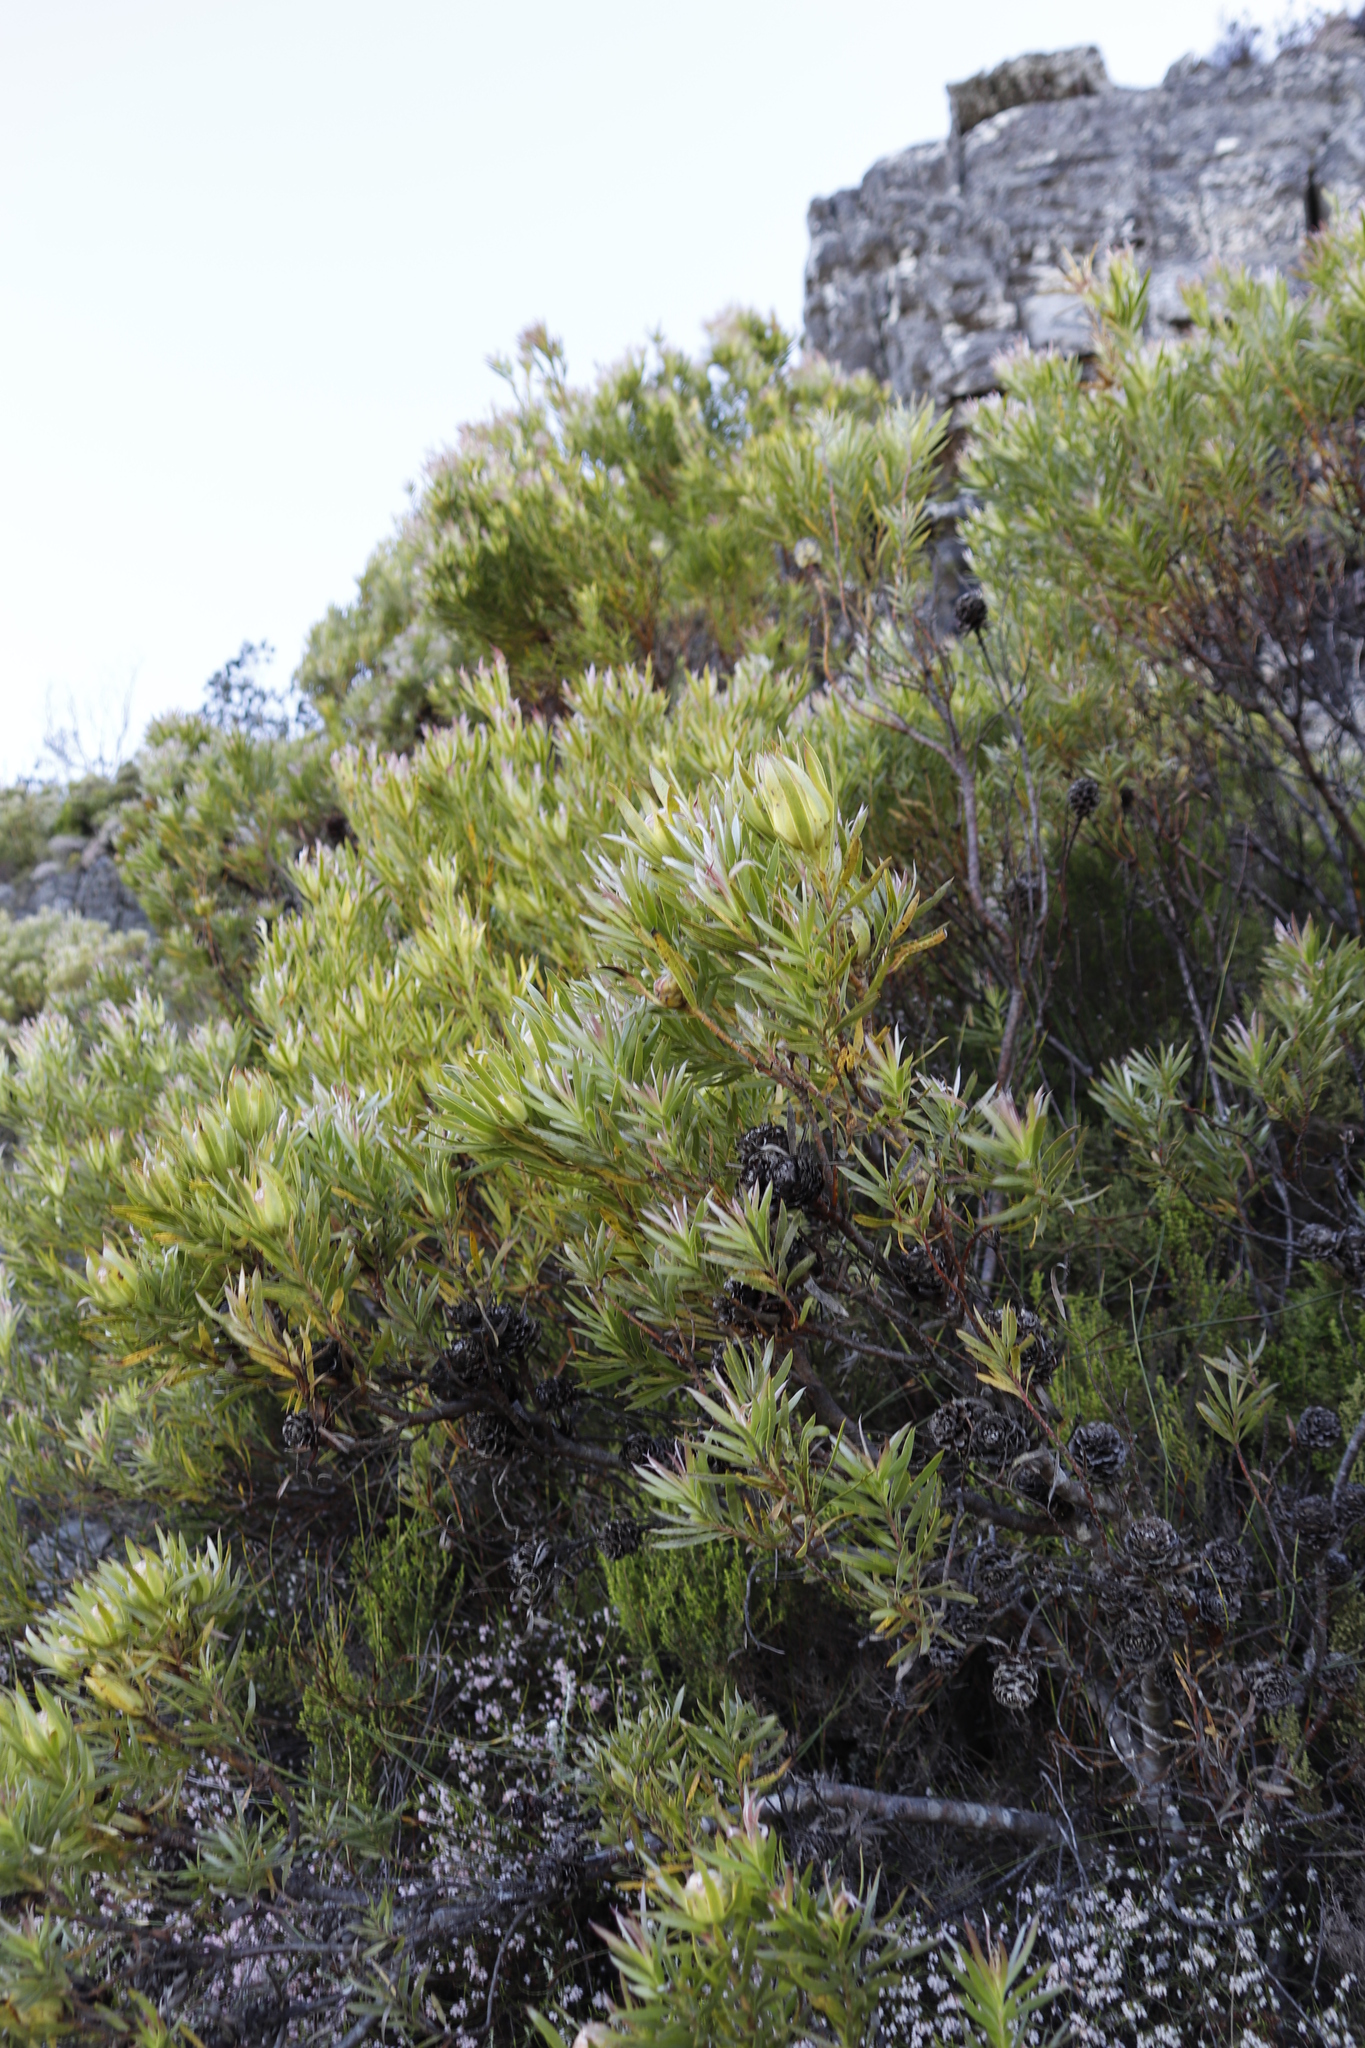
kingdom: Plantae
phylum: Tracheophyta
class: Magnoliopsida
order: Proteales
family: Proteaceae
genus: Leucadendron
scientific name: Leucadendron xanthoconus
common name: Sickle-leaf conebush
